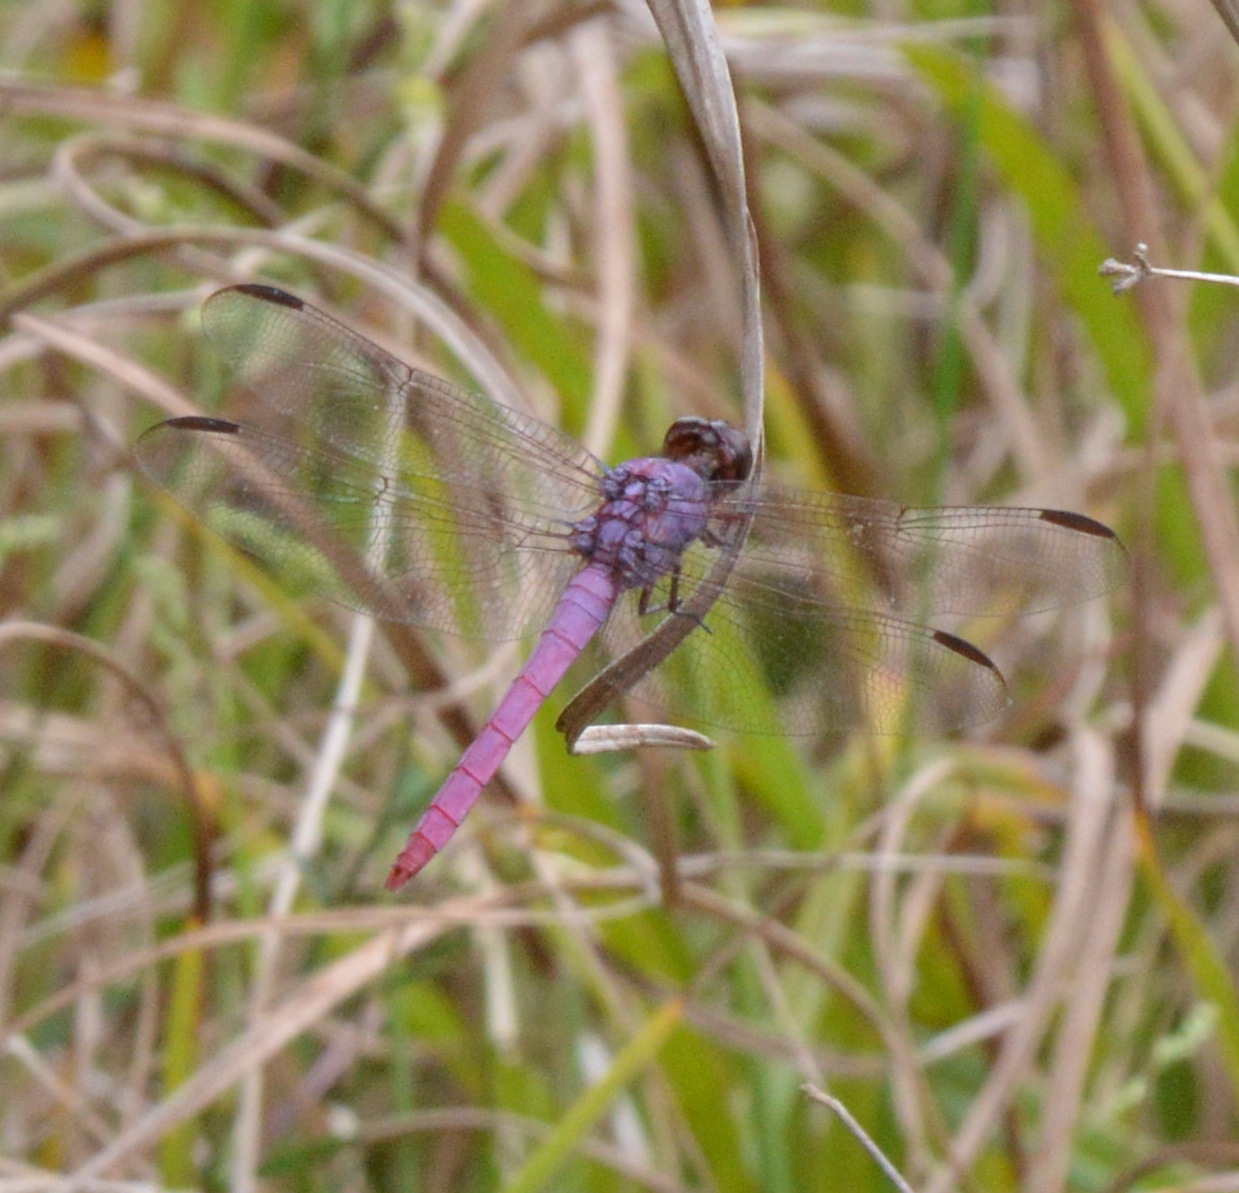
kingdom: Animalia
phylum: Arthropoda
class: Insecta
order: Odonata
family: Libellulidae
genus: Orthemis
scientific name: Orthemis ferruginea
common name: Roseate skimmer
